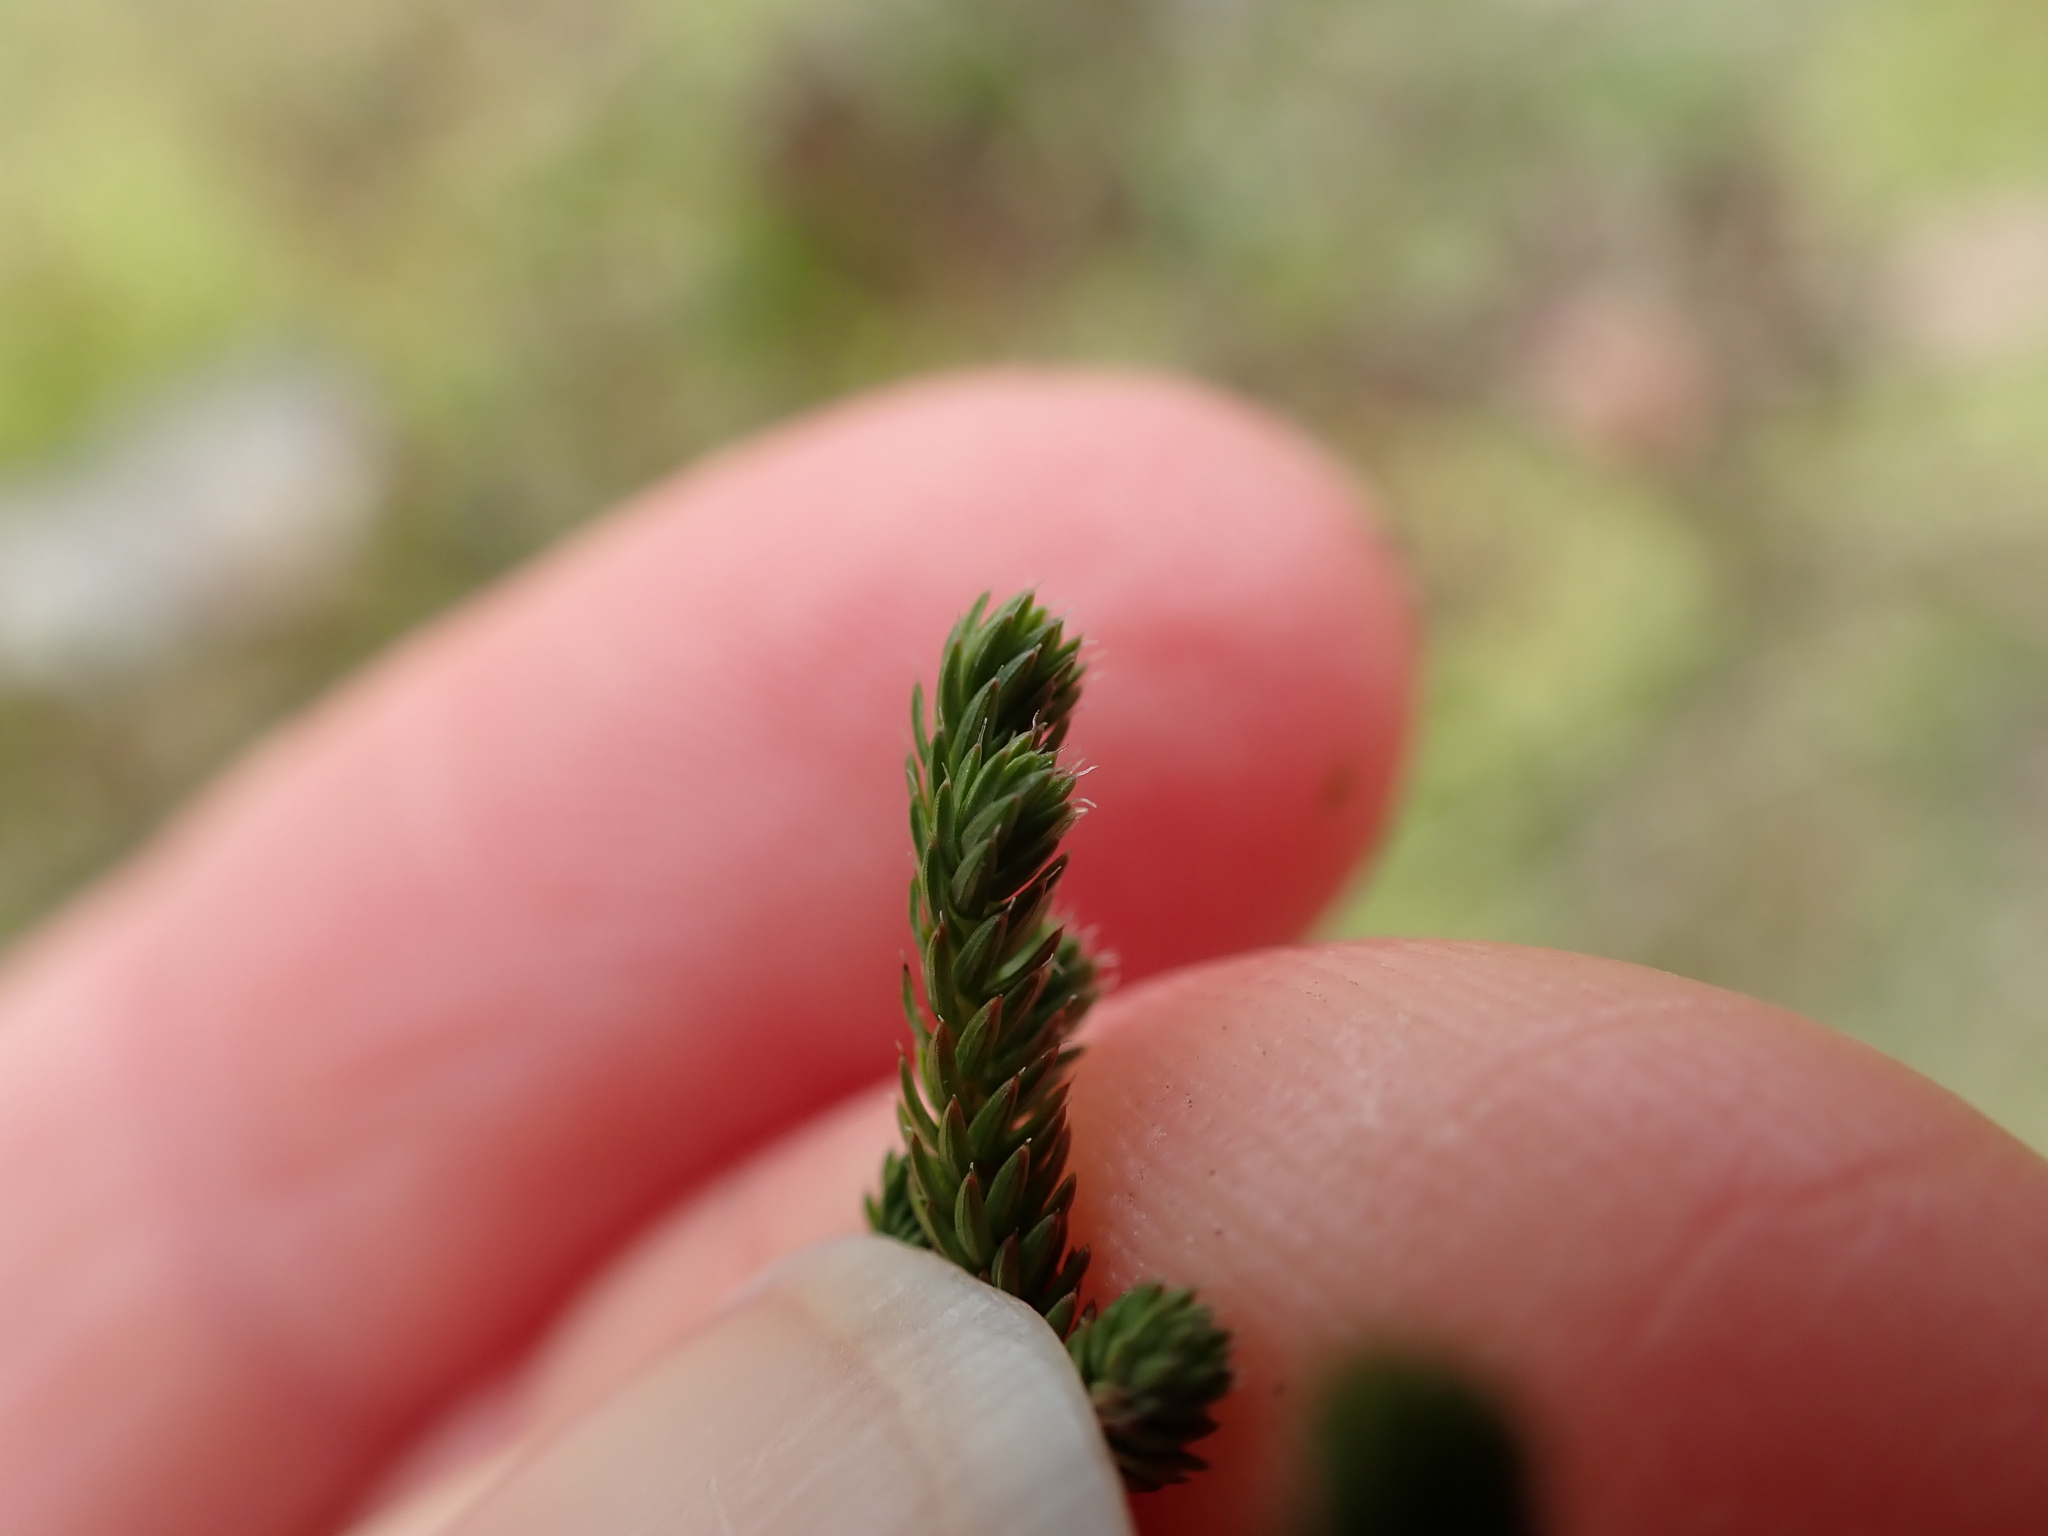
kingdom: Plantae
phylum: Tracheophyta
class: Lycopodiopsida
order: Selaginellales
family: Selaginellaceae
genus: Selaginella
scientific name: Selaginella wallacei
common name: Wallace's selaginella
